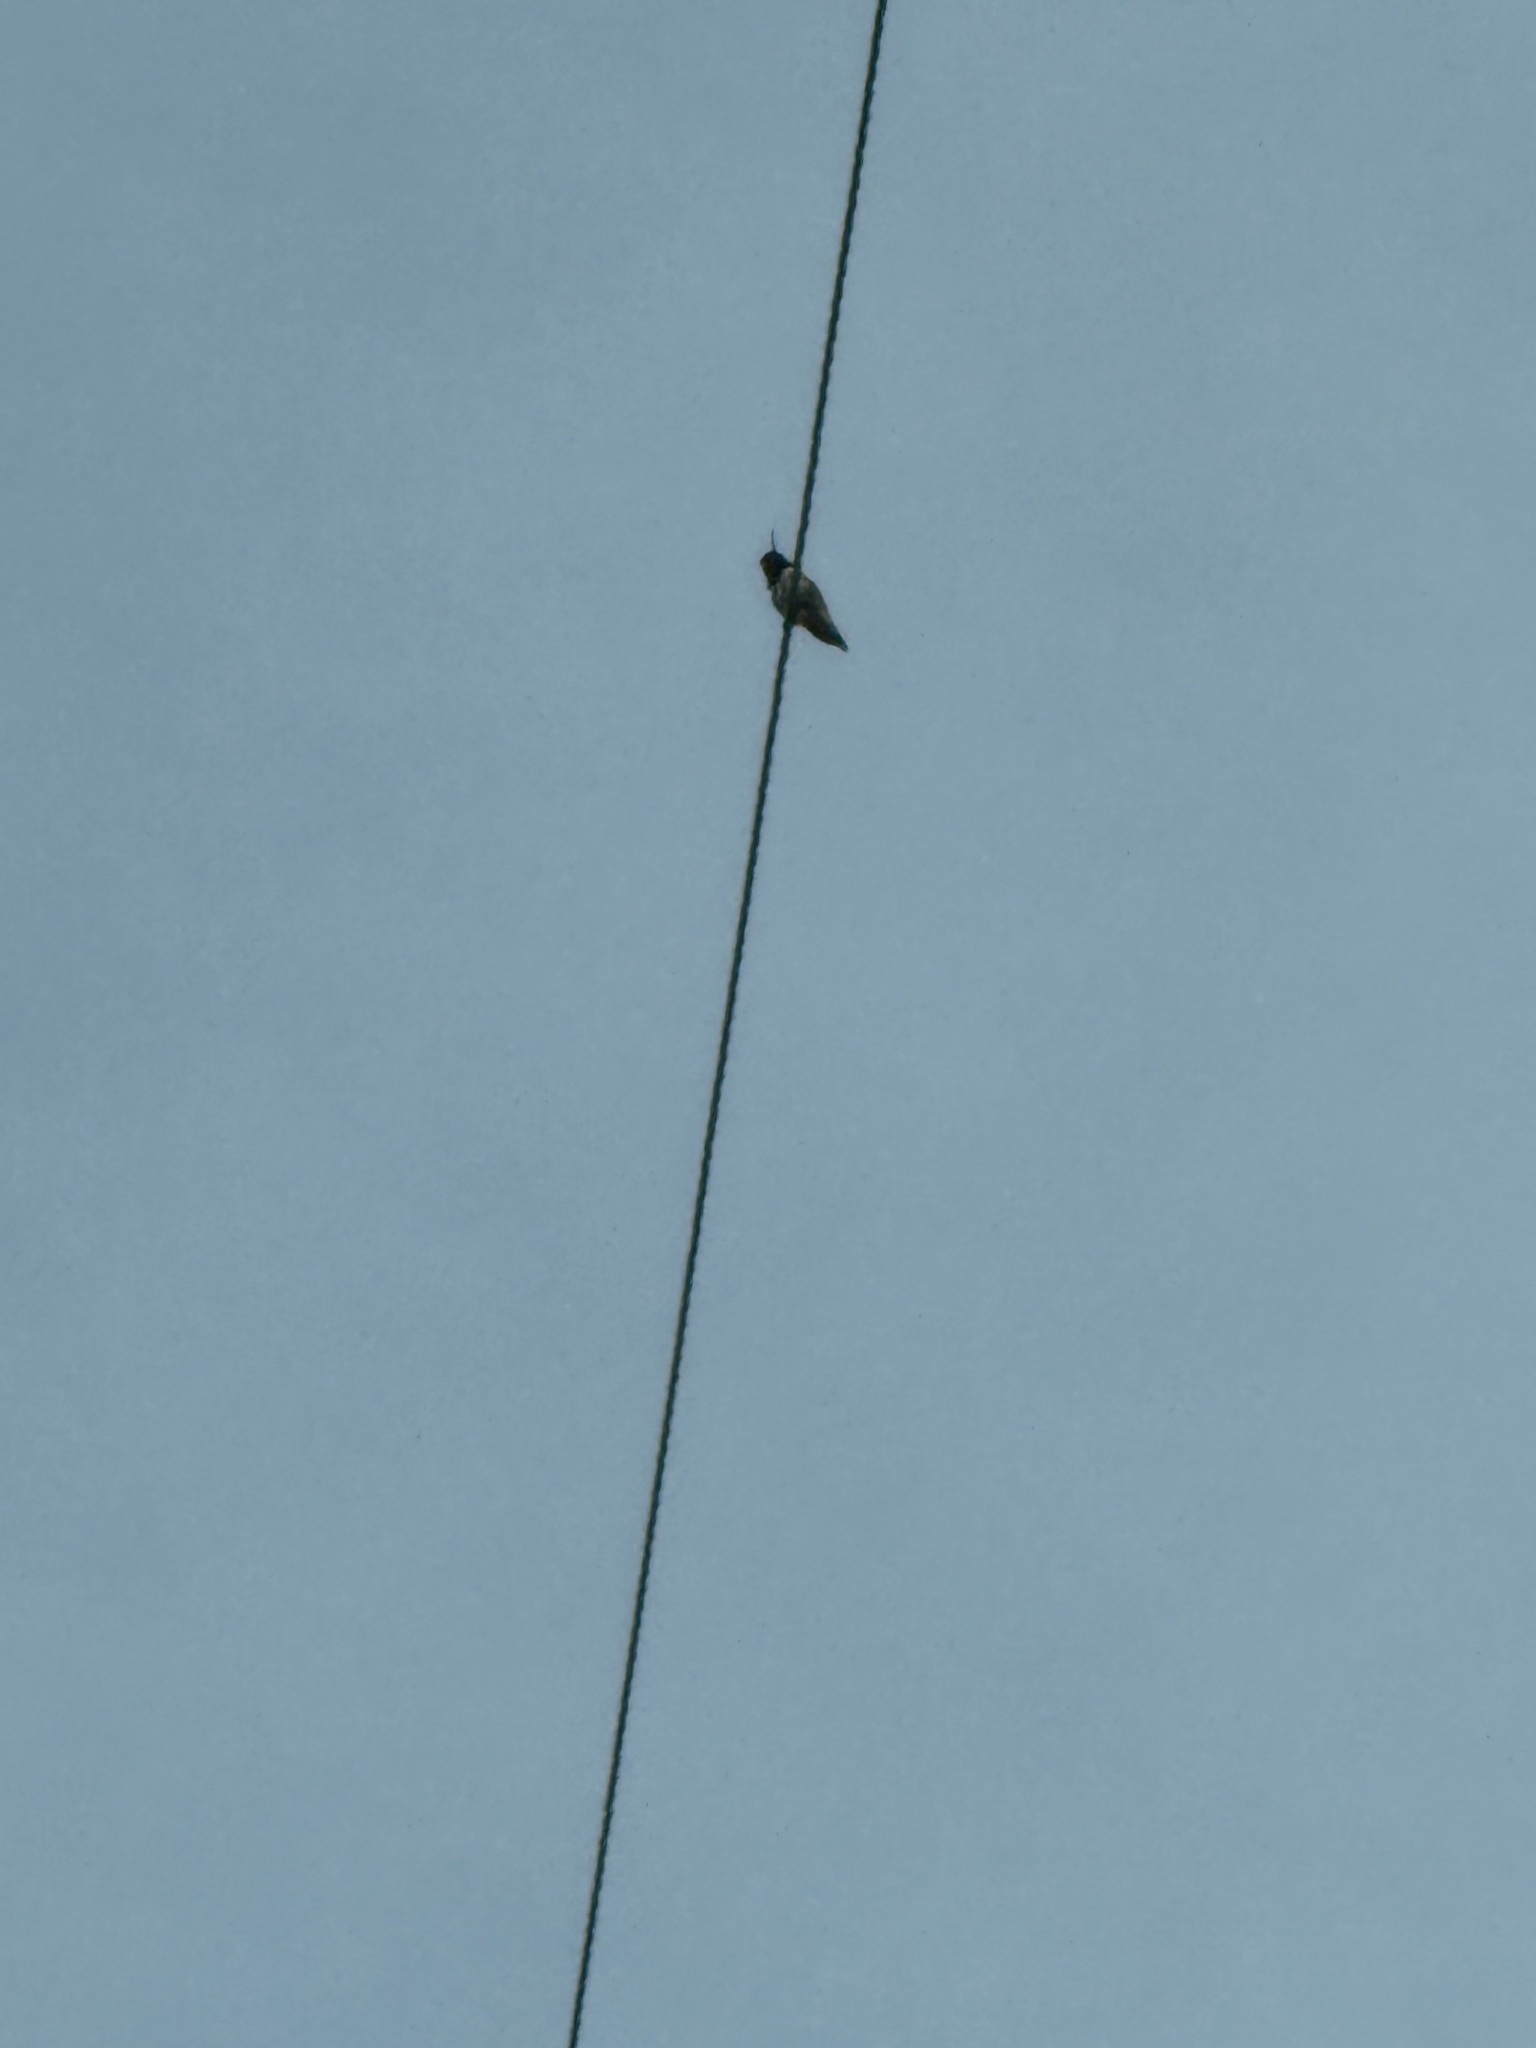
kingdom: Animalia
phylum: Chordata
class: Aves
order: Apodiformes
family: Trochilidae
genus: Calypte
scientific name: Calypte anna
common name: Anna's hummingbird
